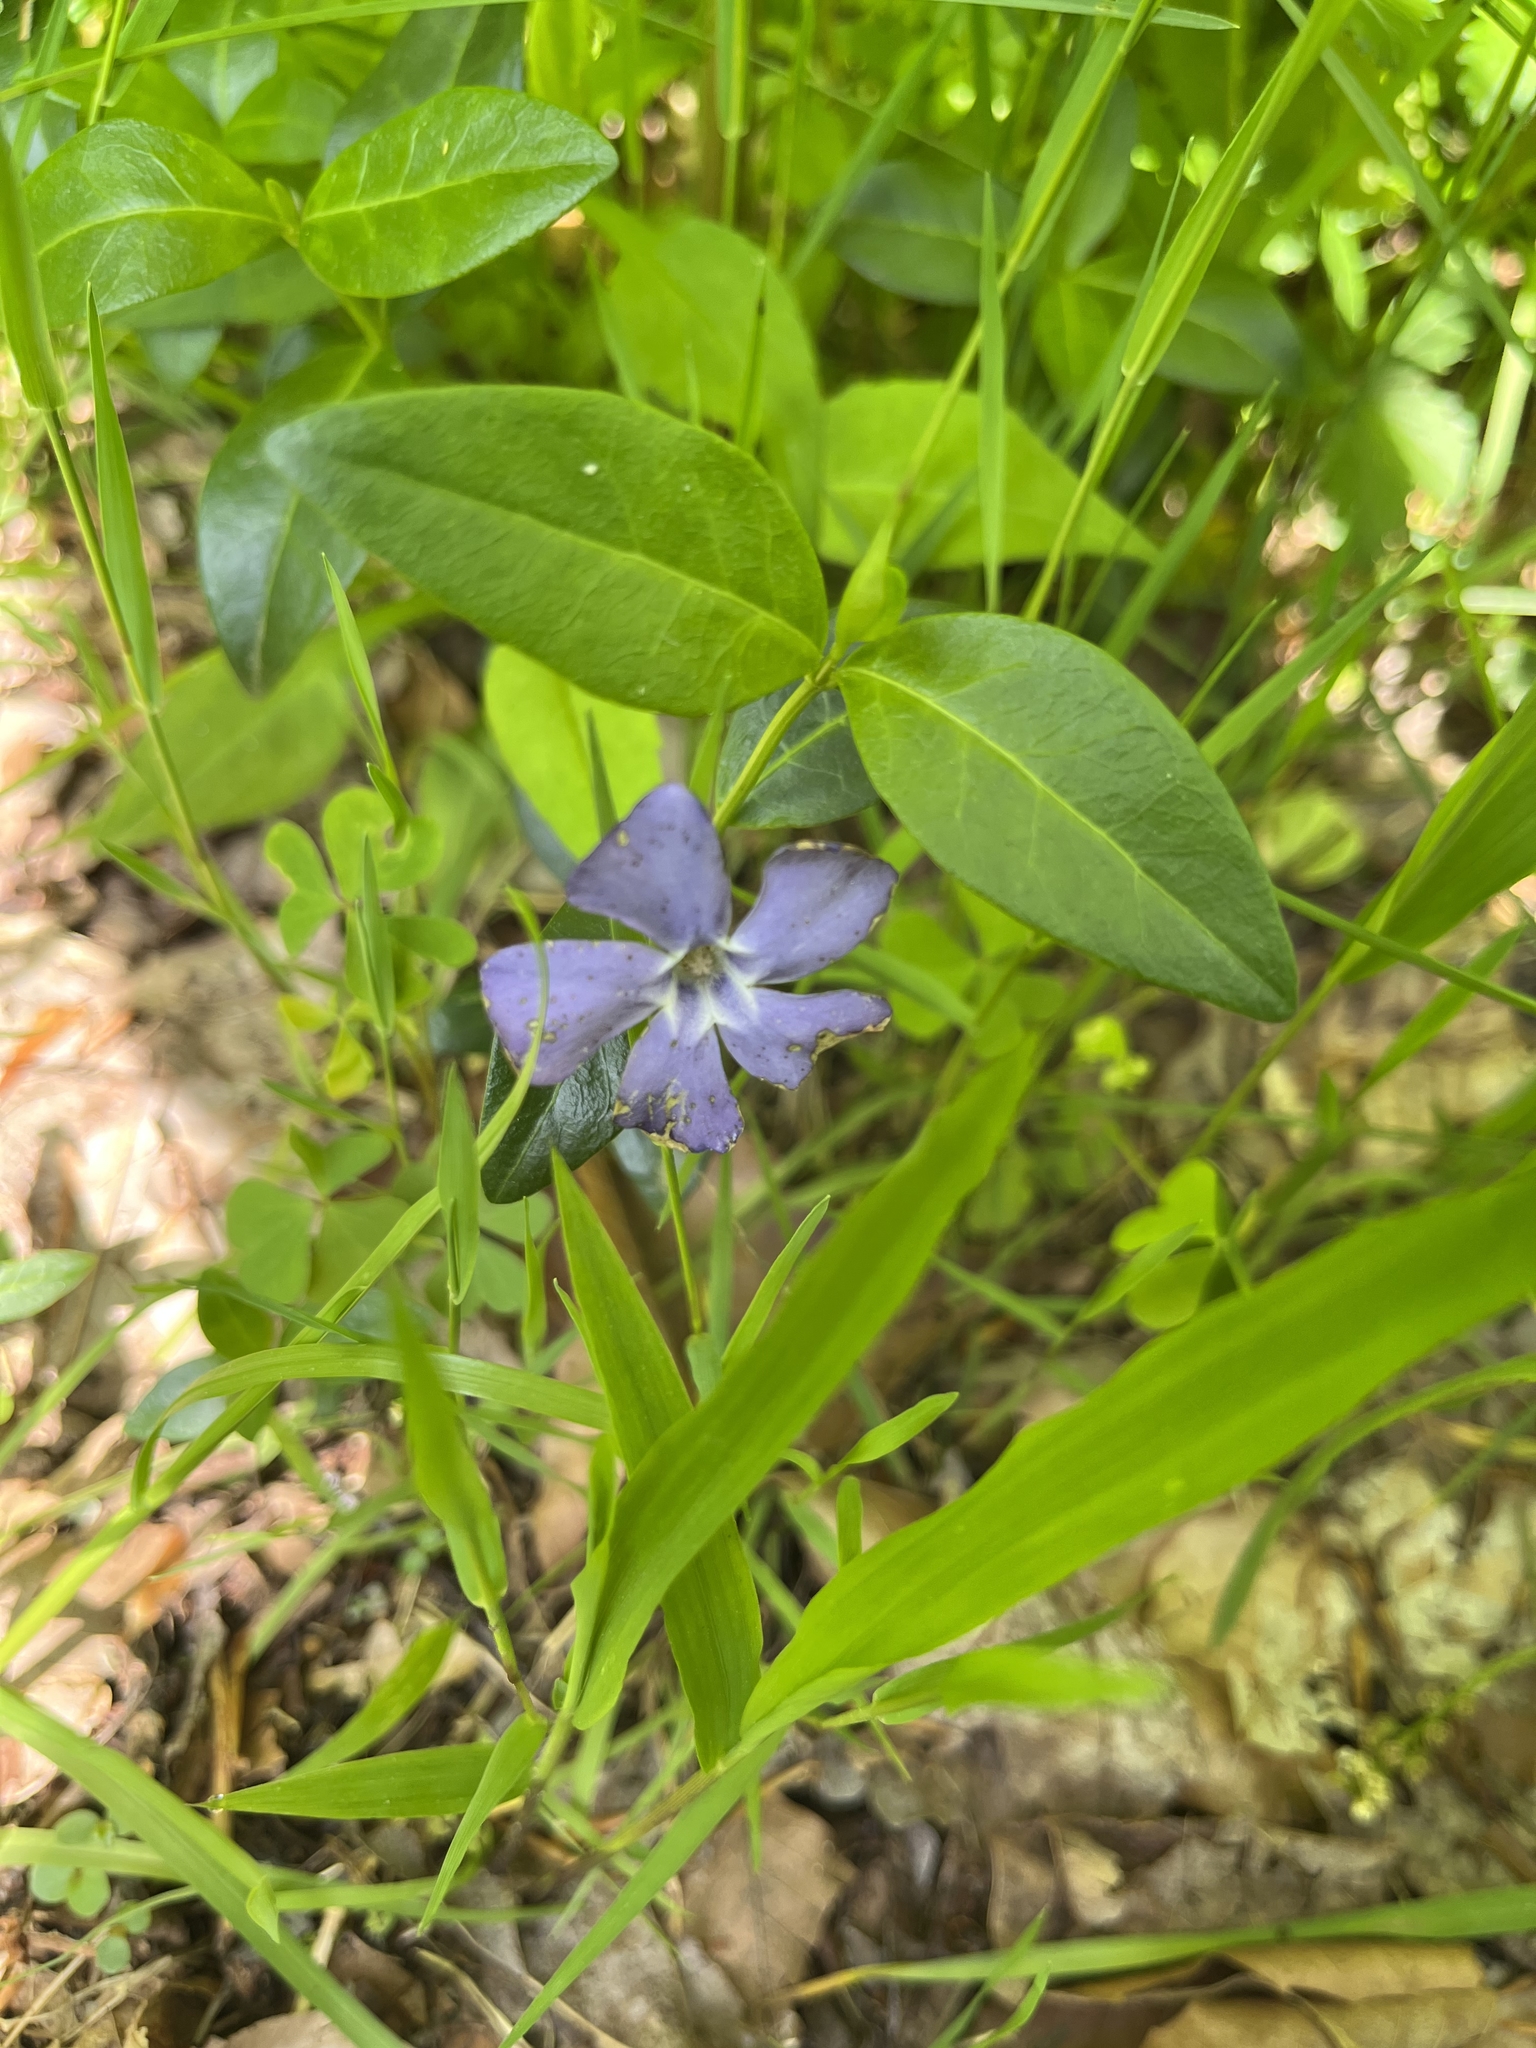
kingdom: Plantae
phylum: Tracheophyta
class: Magnoliopsida
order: Gentianales
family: Apocynaceae
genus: Vinca
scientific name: Vinca minor
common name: Lesser periwinkle
